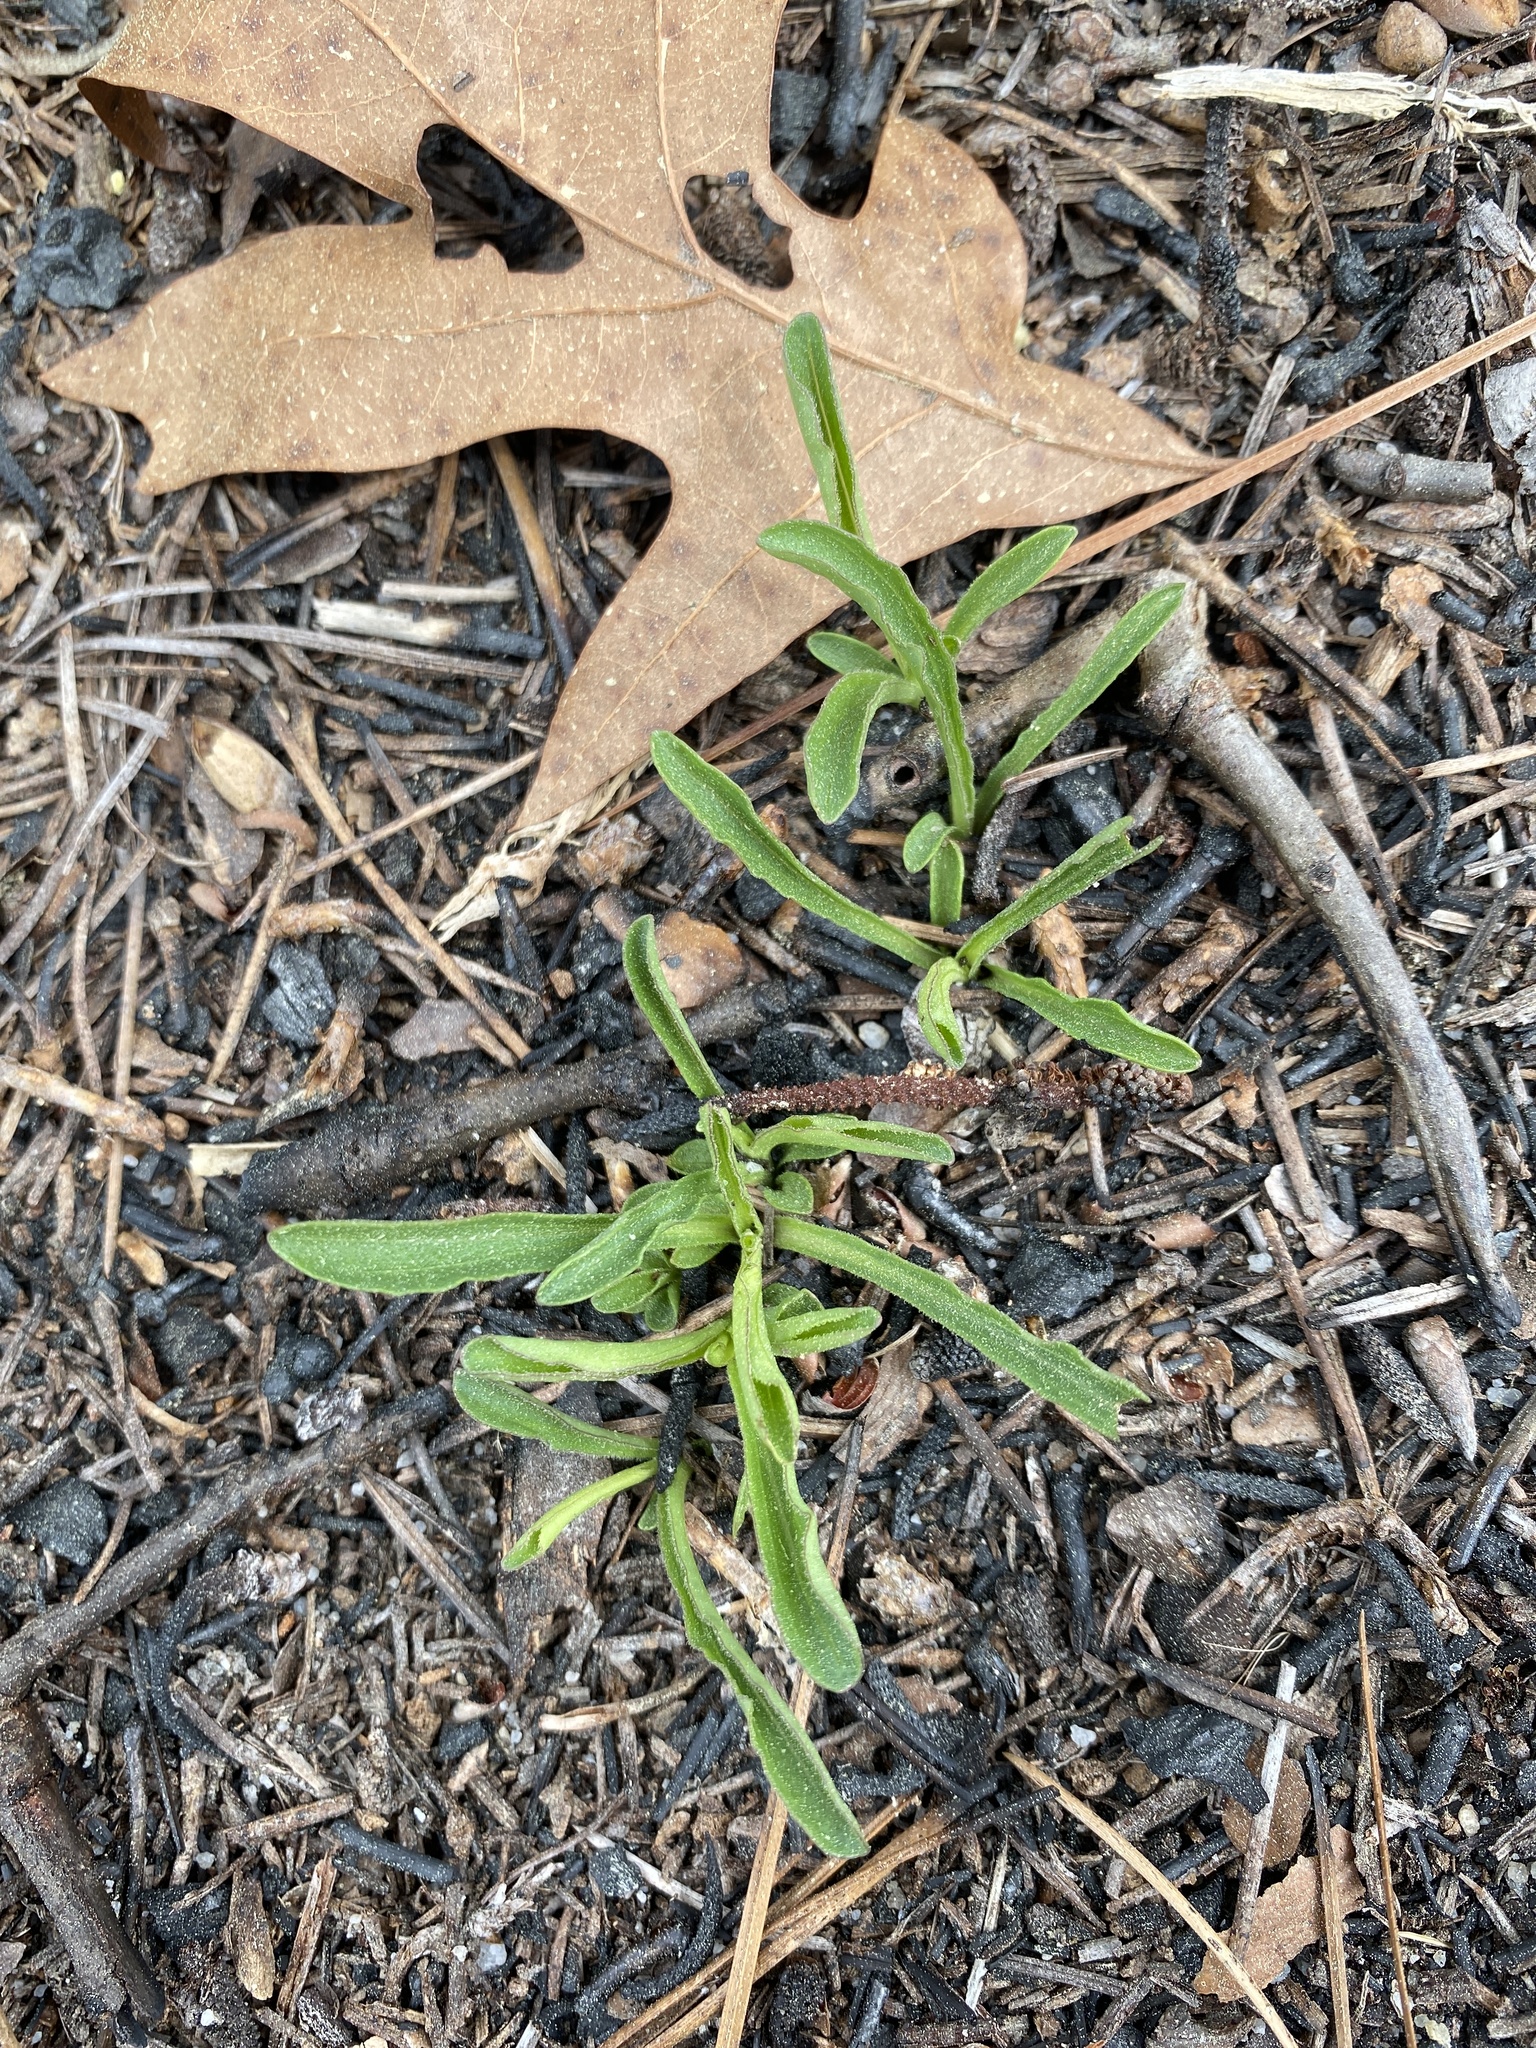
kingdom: Plantae
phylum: Tracheophyta
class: Magnoliopsida
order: Asterales
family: Asteraceae
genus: Carphephorus
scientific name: Carphephorus bellidifolius
